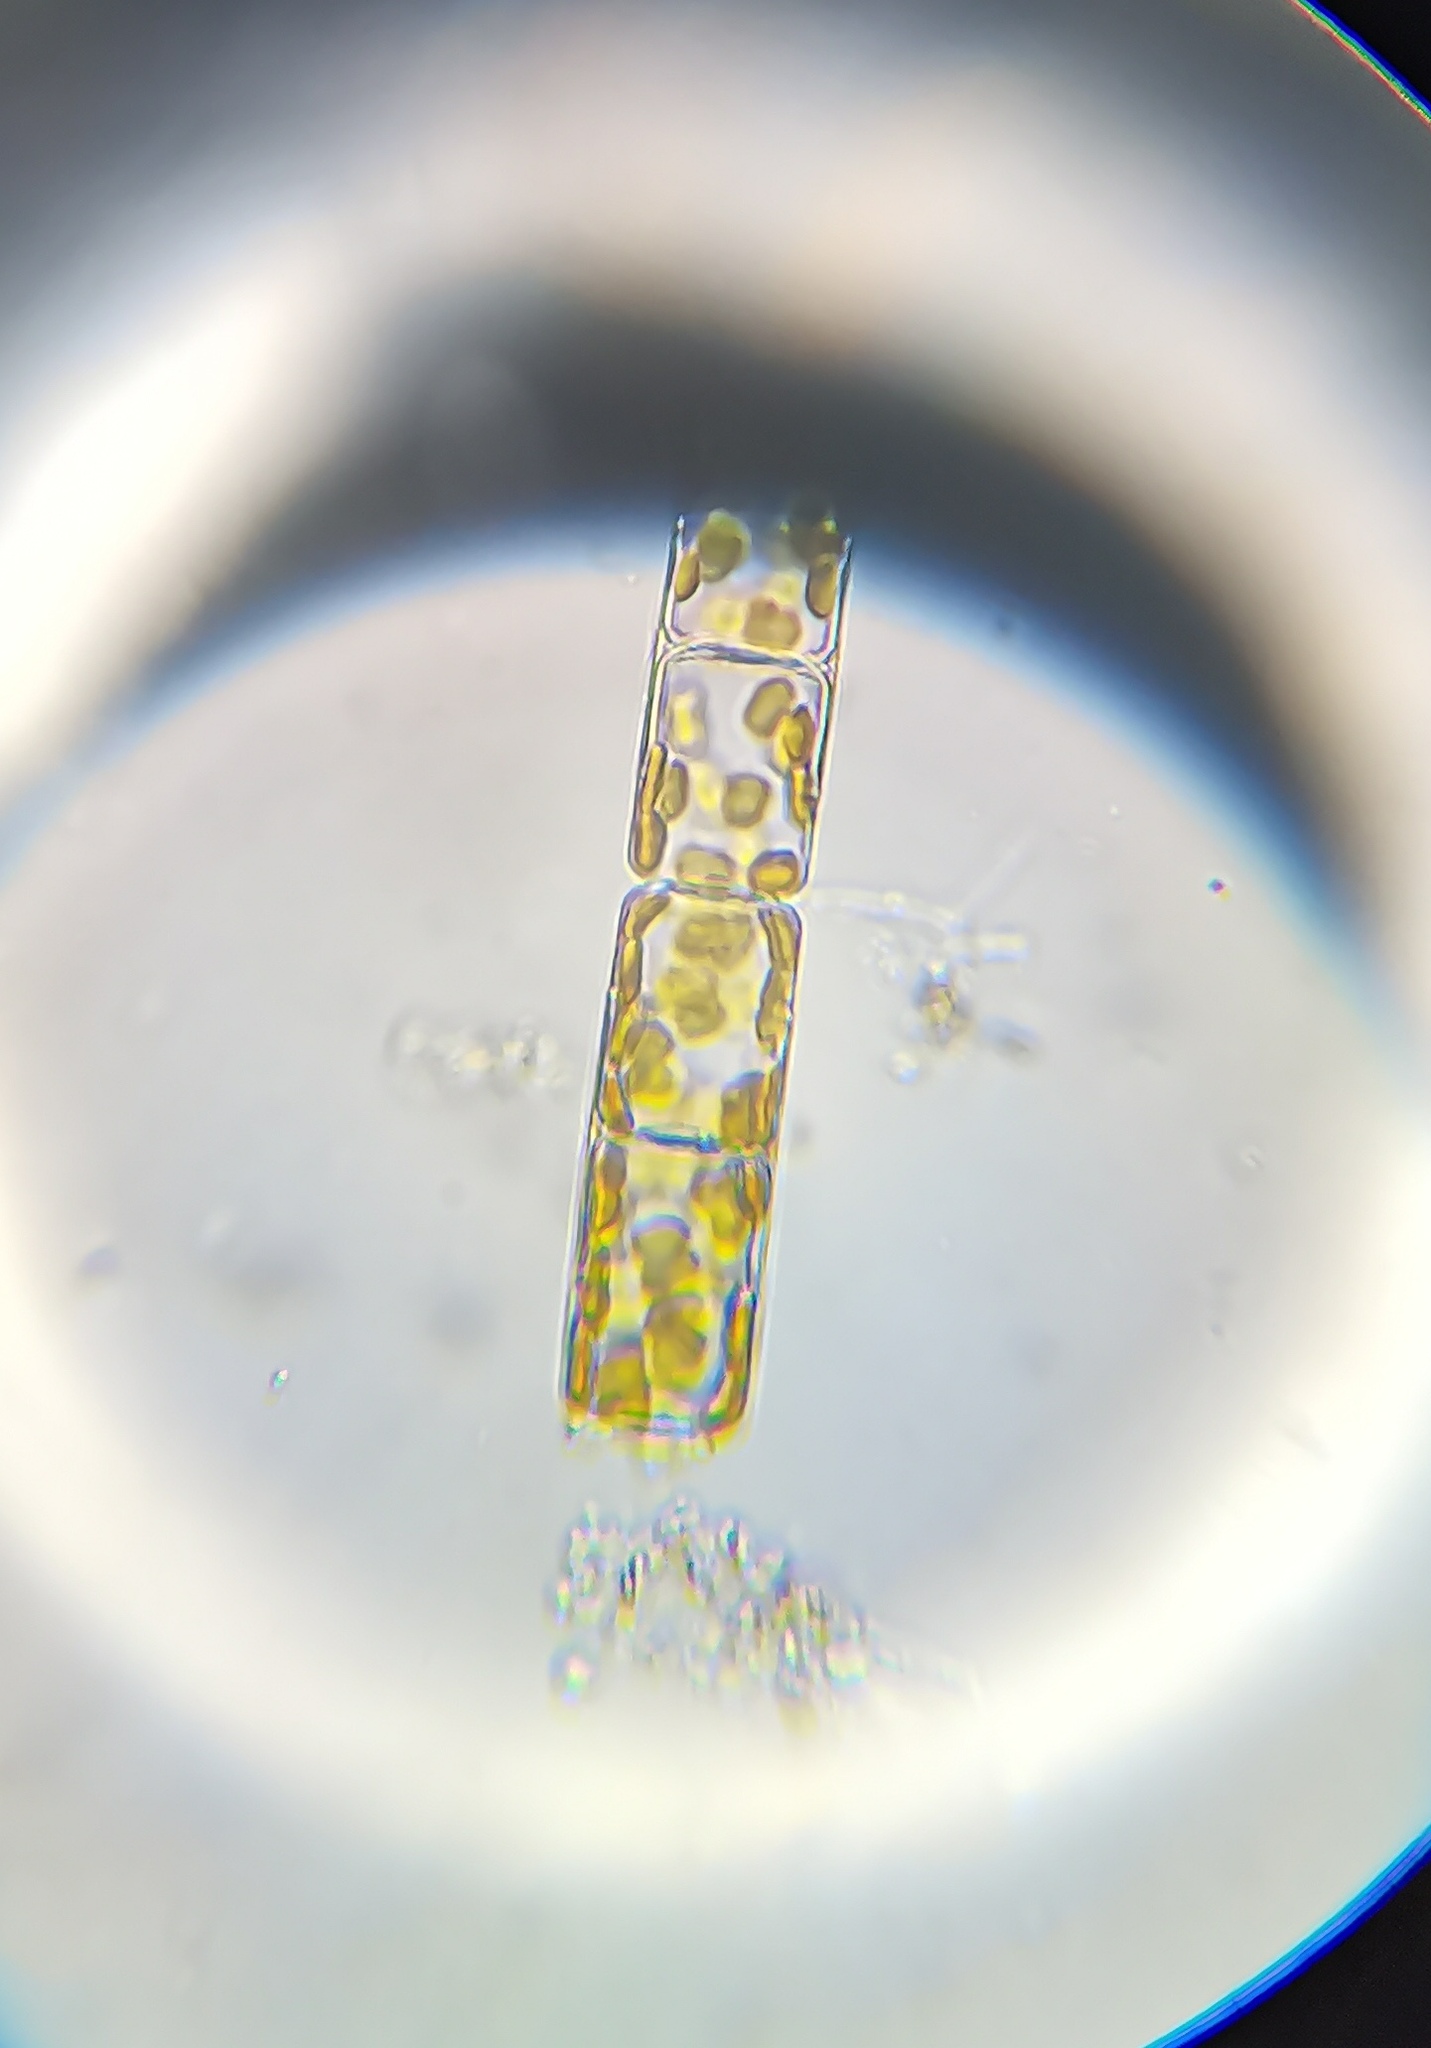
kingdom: Chromista
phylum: Ochrophyta
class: Bacillariophyceae
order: Melosirales
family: Melosiraceae
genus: Melosira
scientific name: Melosira varians
